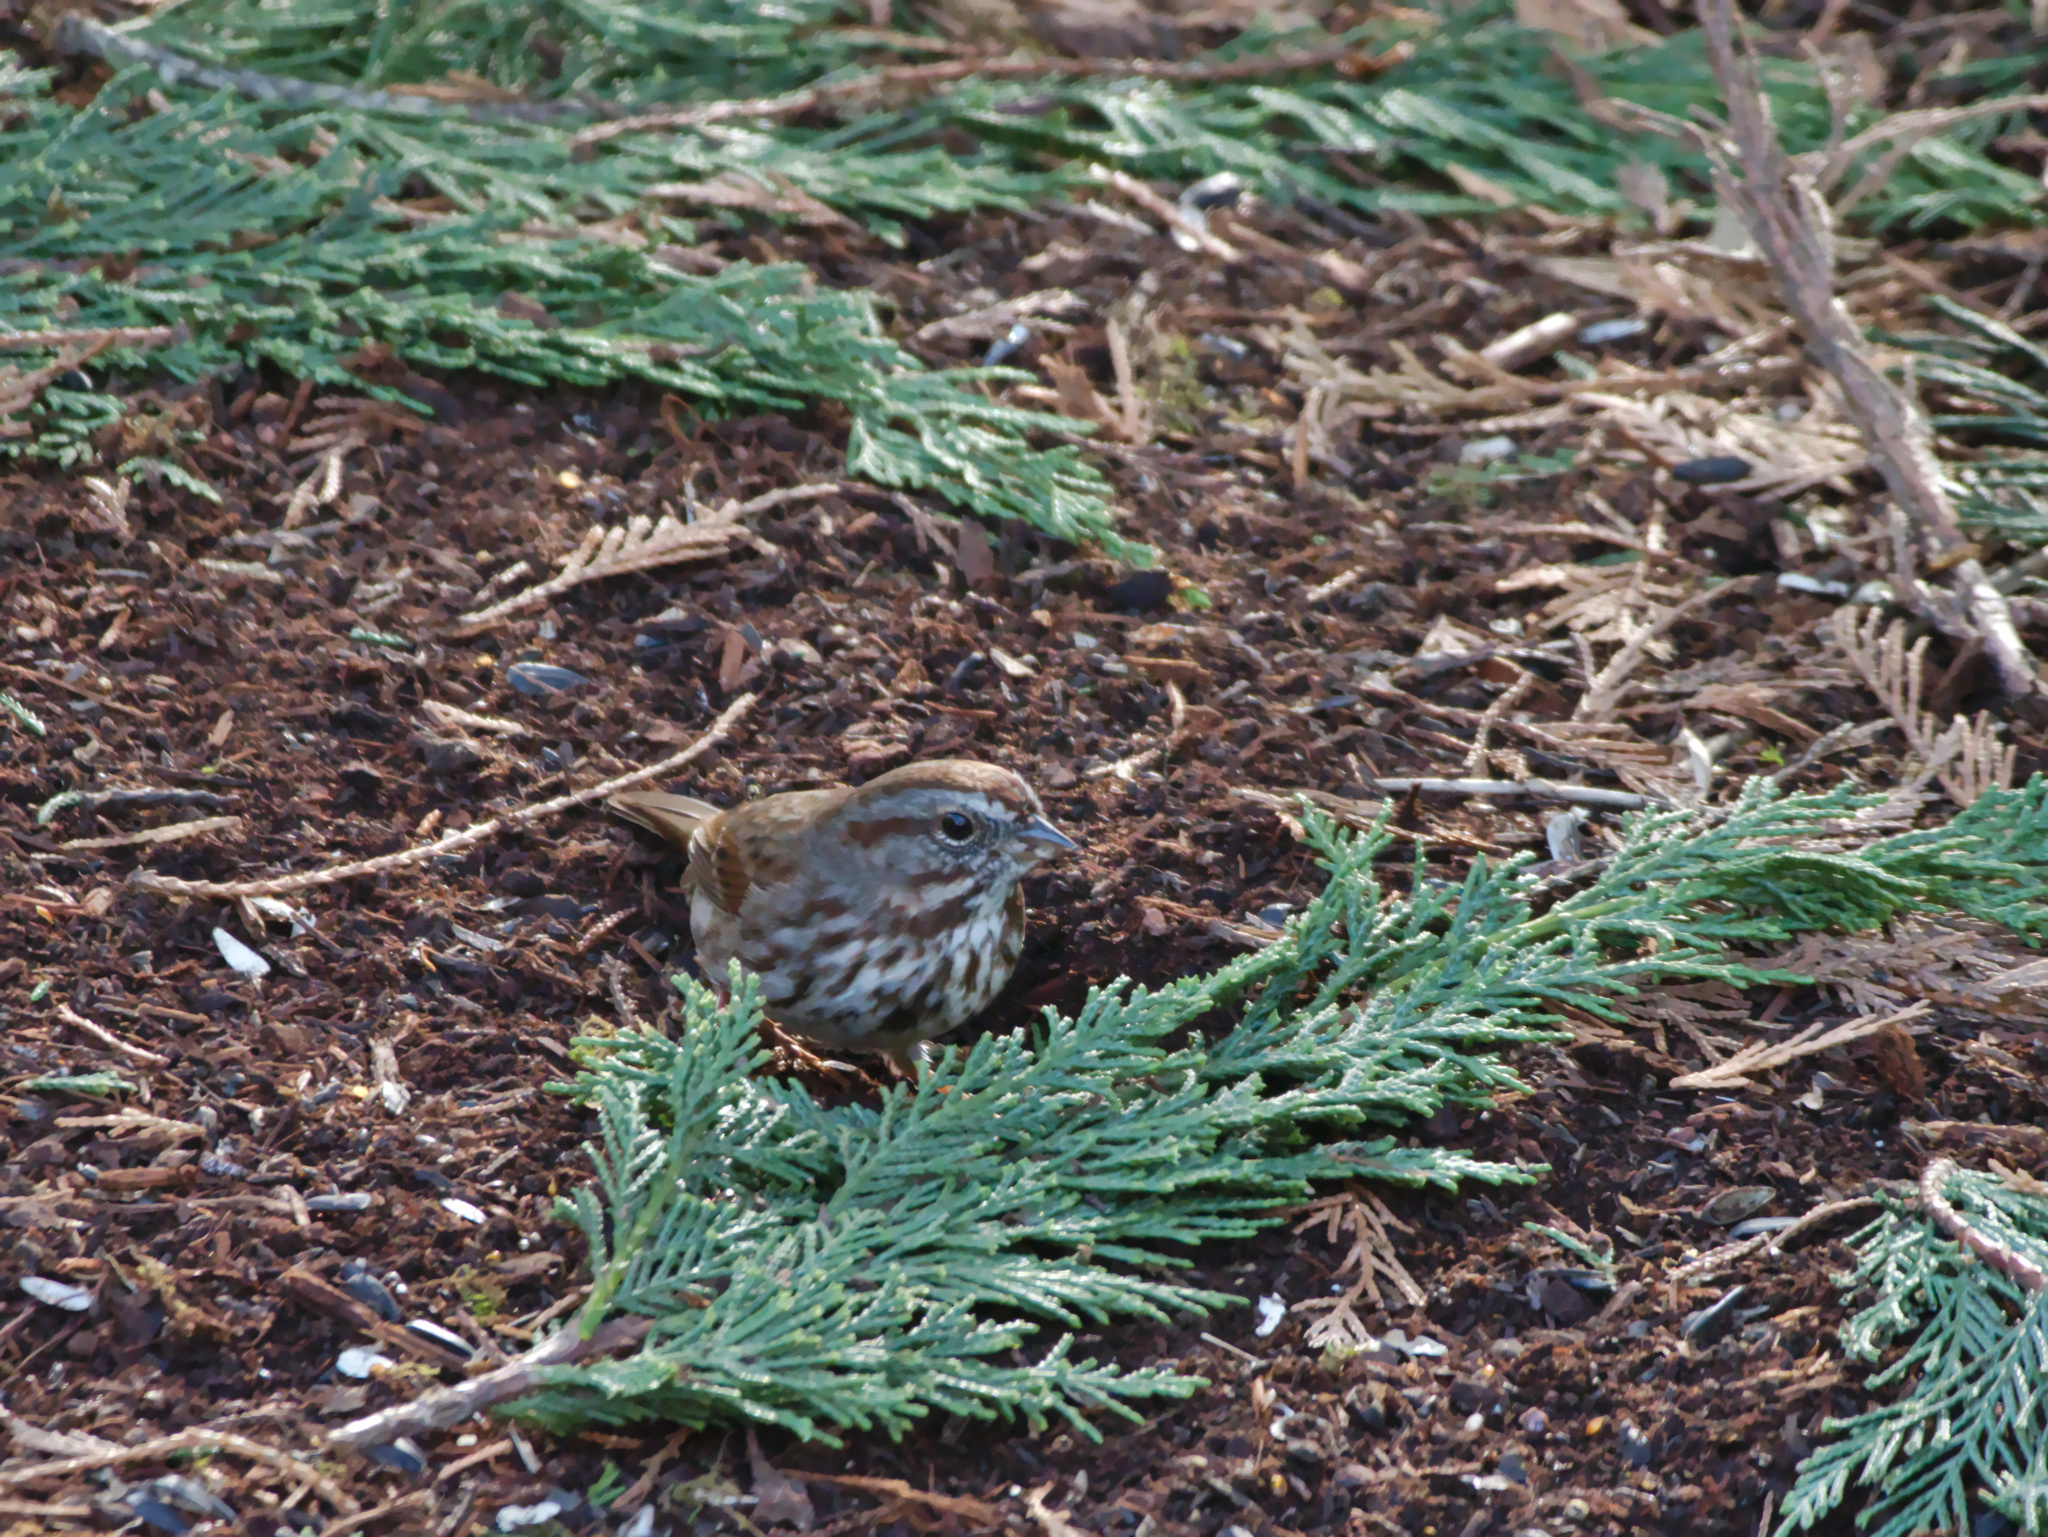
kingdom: Animalia
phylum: Chordata
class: Aves
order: Passeriformes
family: Passerellidae
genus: Melospiza
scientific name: Melospiza melodia
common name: Song sparrow
